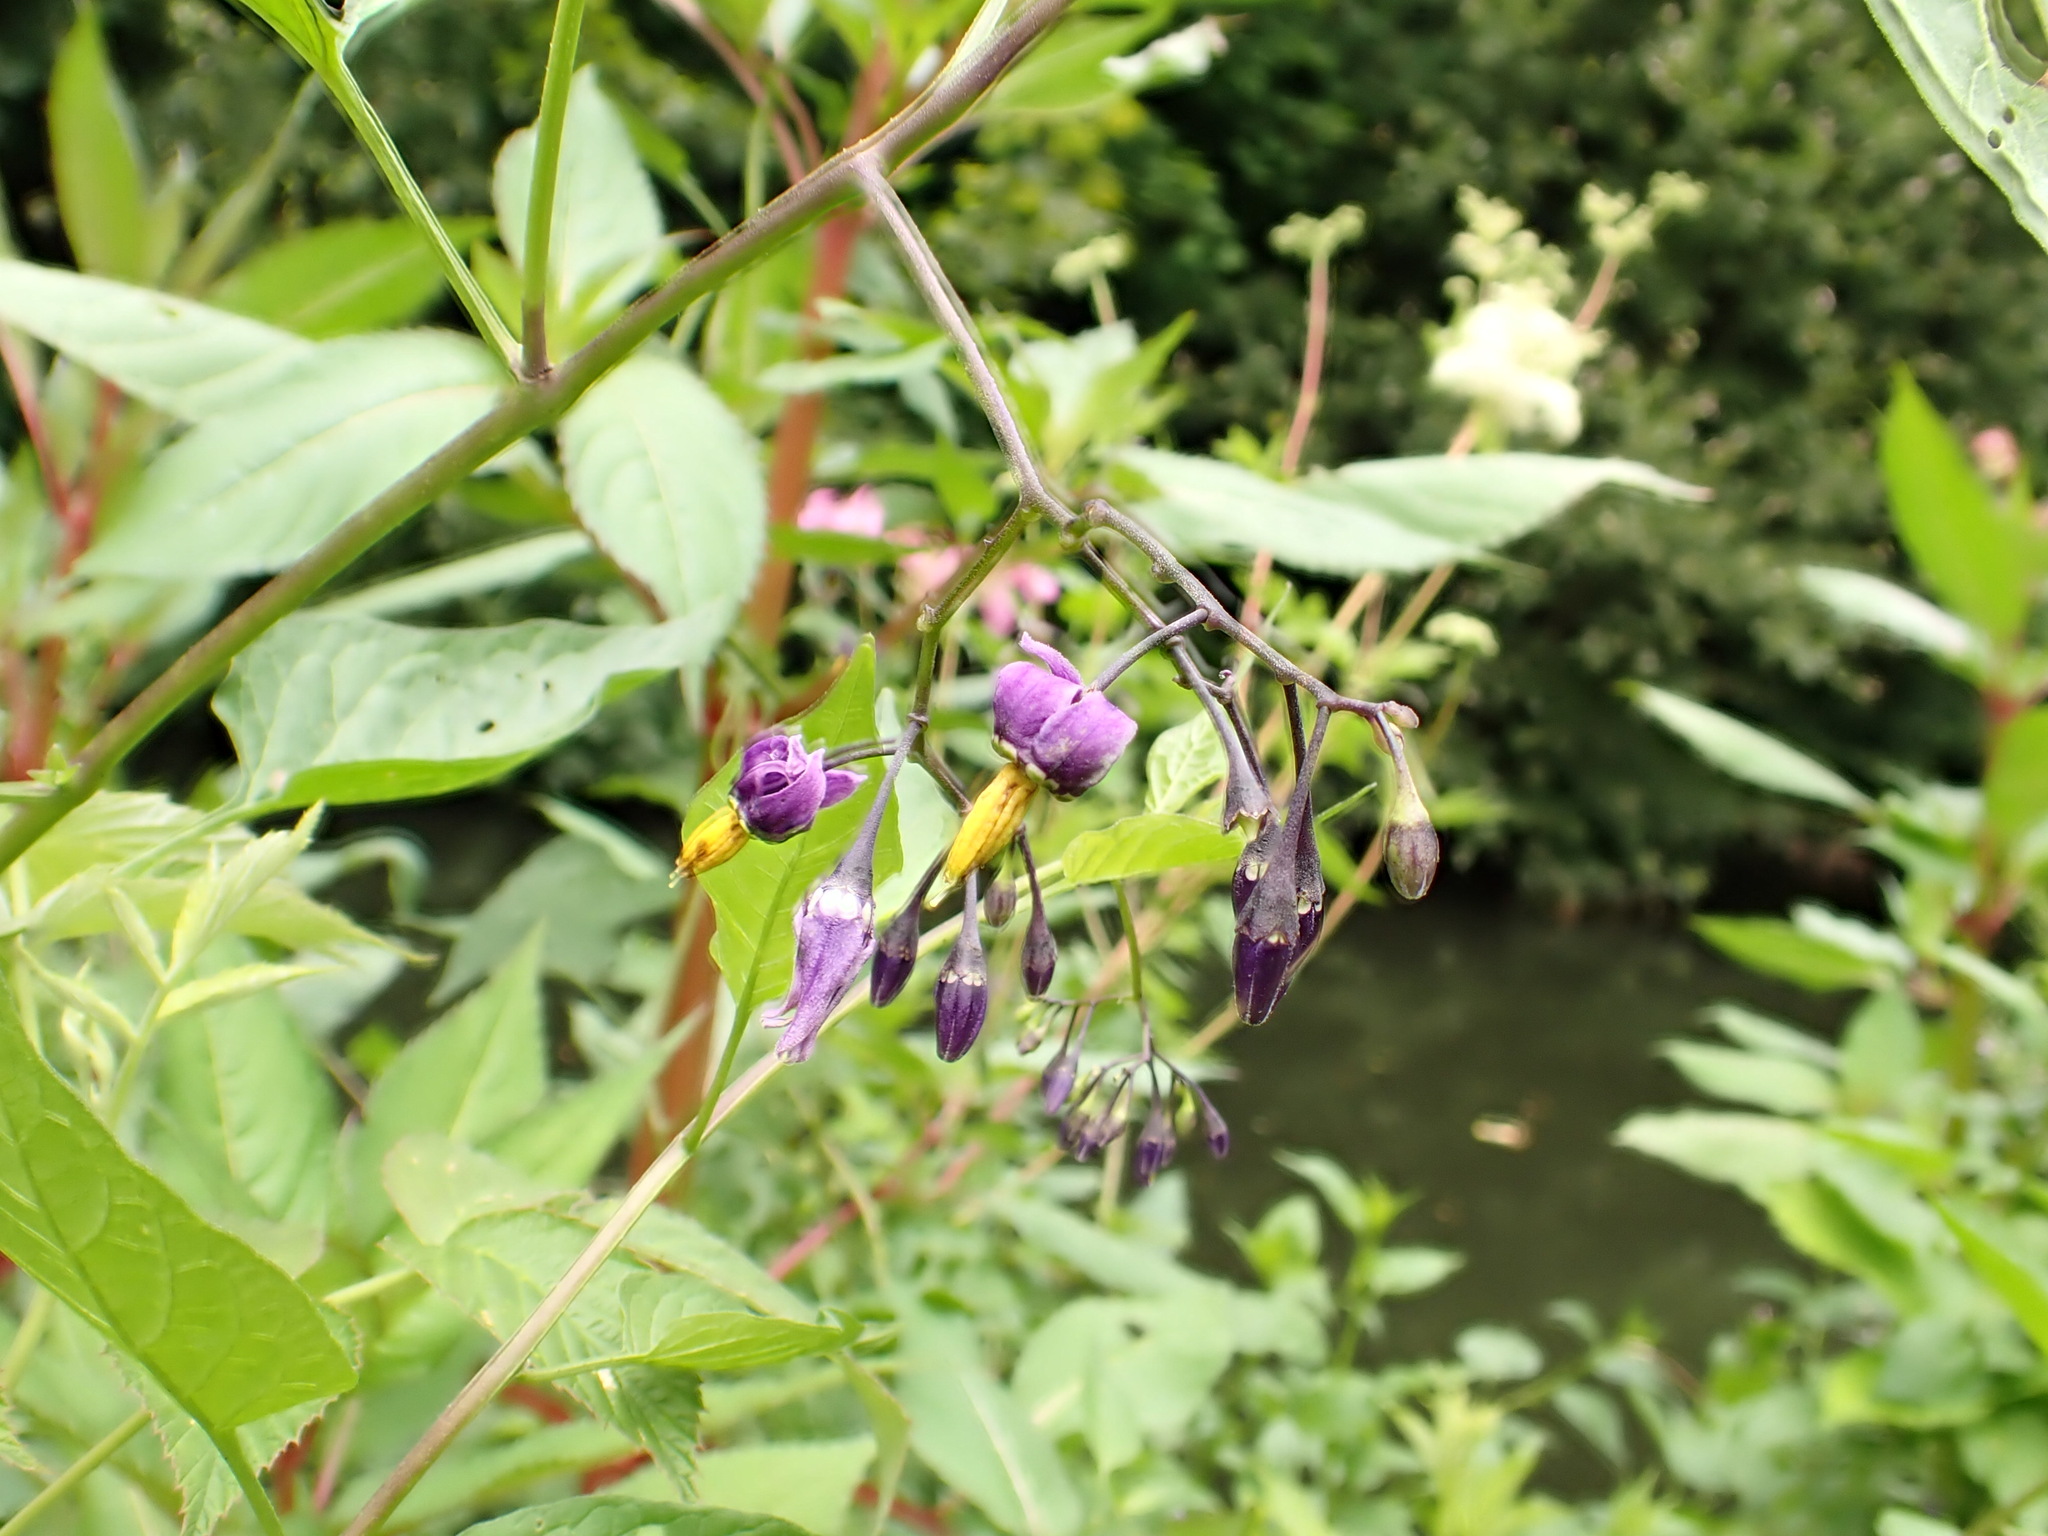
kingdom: Plantae
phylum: Tracheophyta
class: Magnoliopsida
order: Solanales
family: Solanaceae
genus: Solanum
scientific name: Solanum dulcamara
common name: Climbing nightshade
